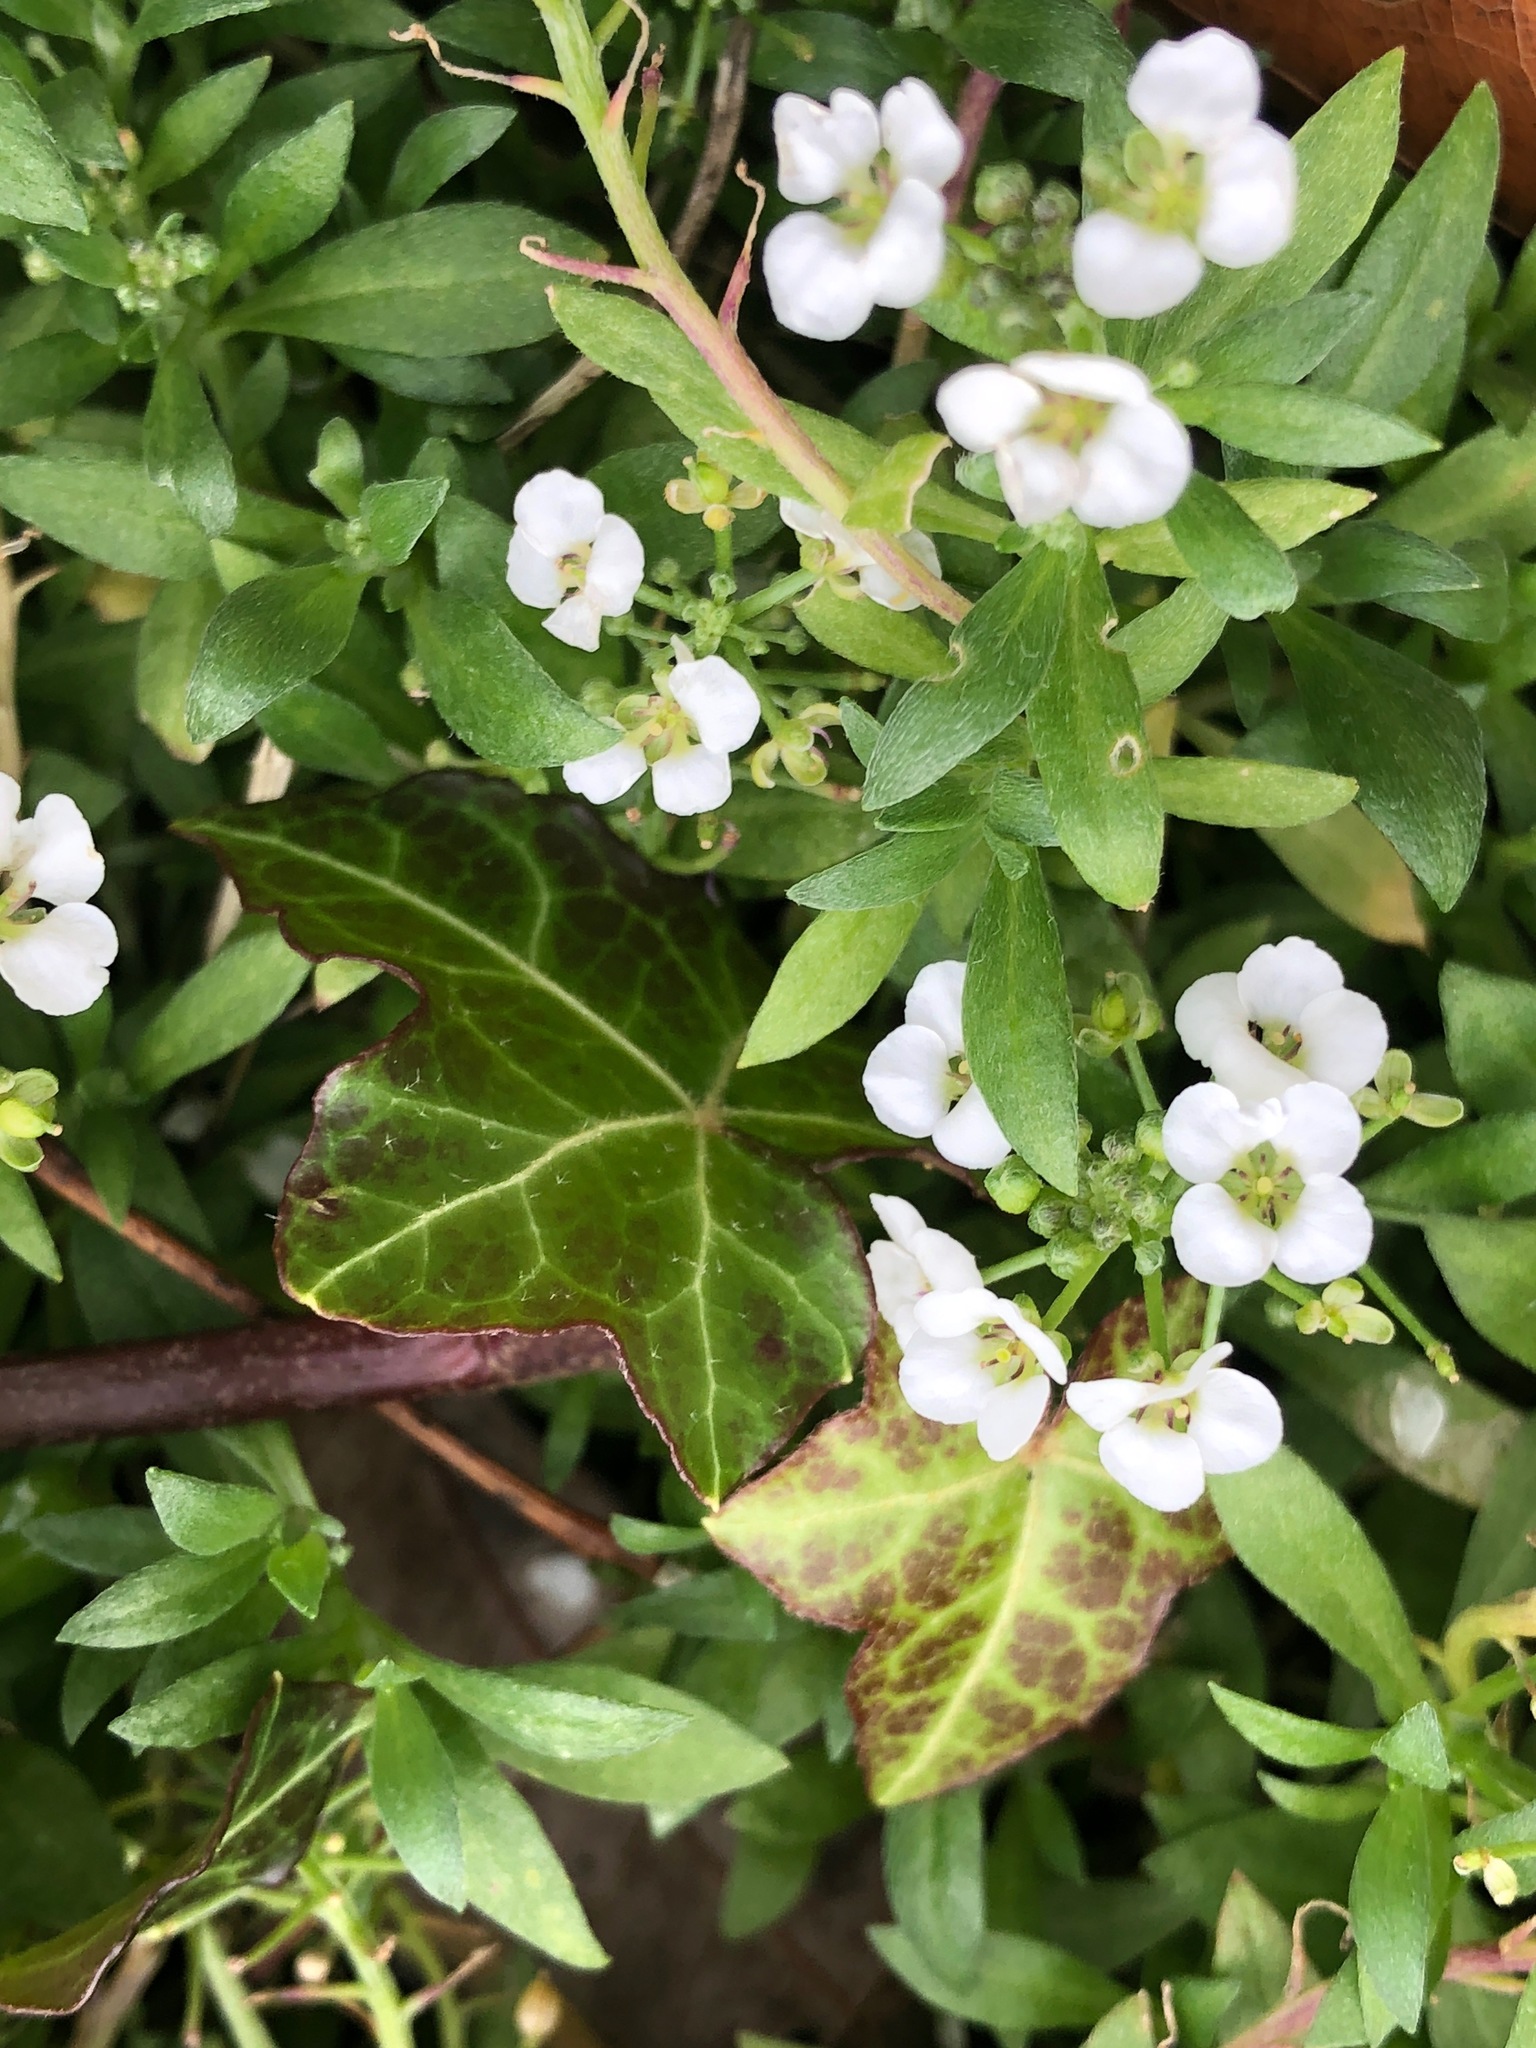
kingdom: Plantae
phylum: Tracheophyta
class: Magnoliopsida
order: Brassicales
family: Brassicaceae
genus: Lobularia
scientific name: Lobularia maritima
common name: Sweet alison
